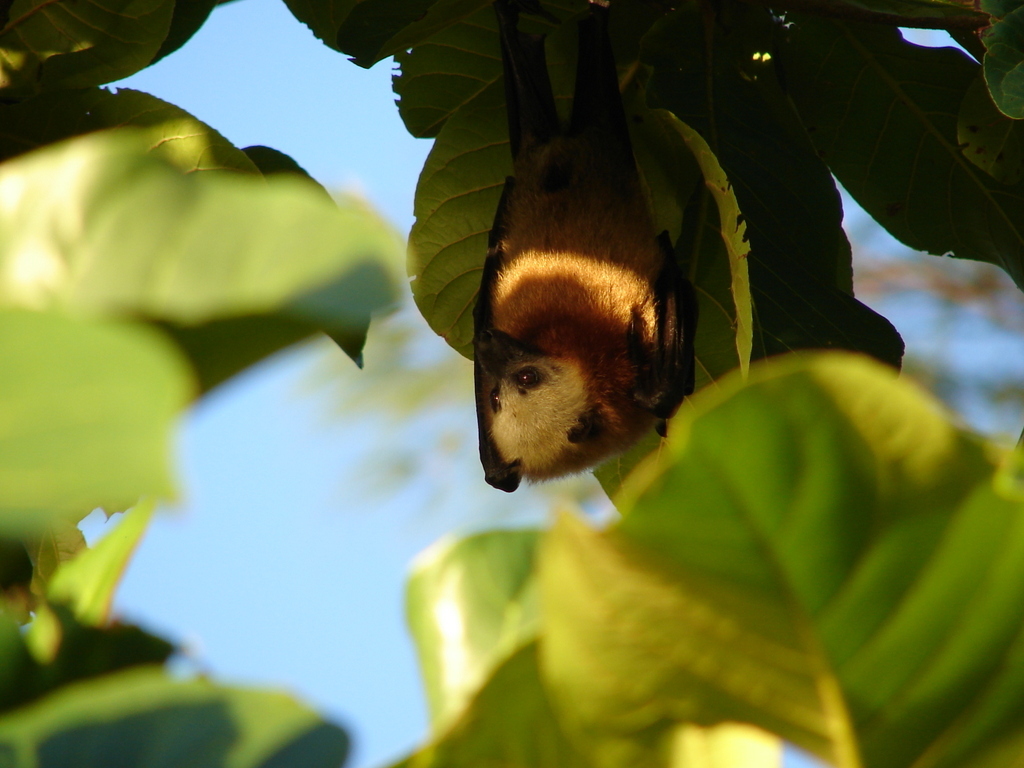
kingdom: Animalia
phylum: Chordata
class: Mammalia
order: Chiroptera
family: Pteropodidae
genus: Pteropus
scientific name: Pteropus aldabrensis
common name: Aldabra flying fox
